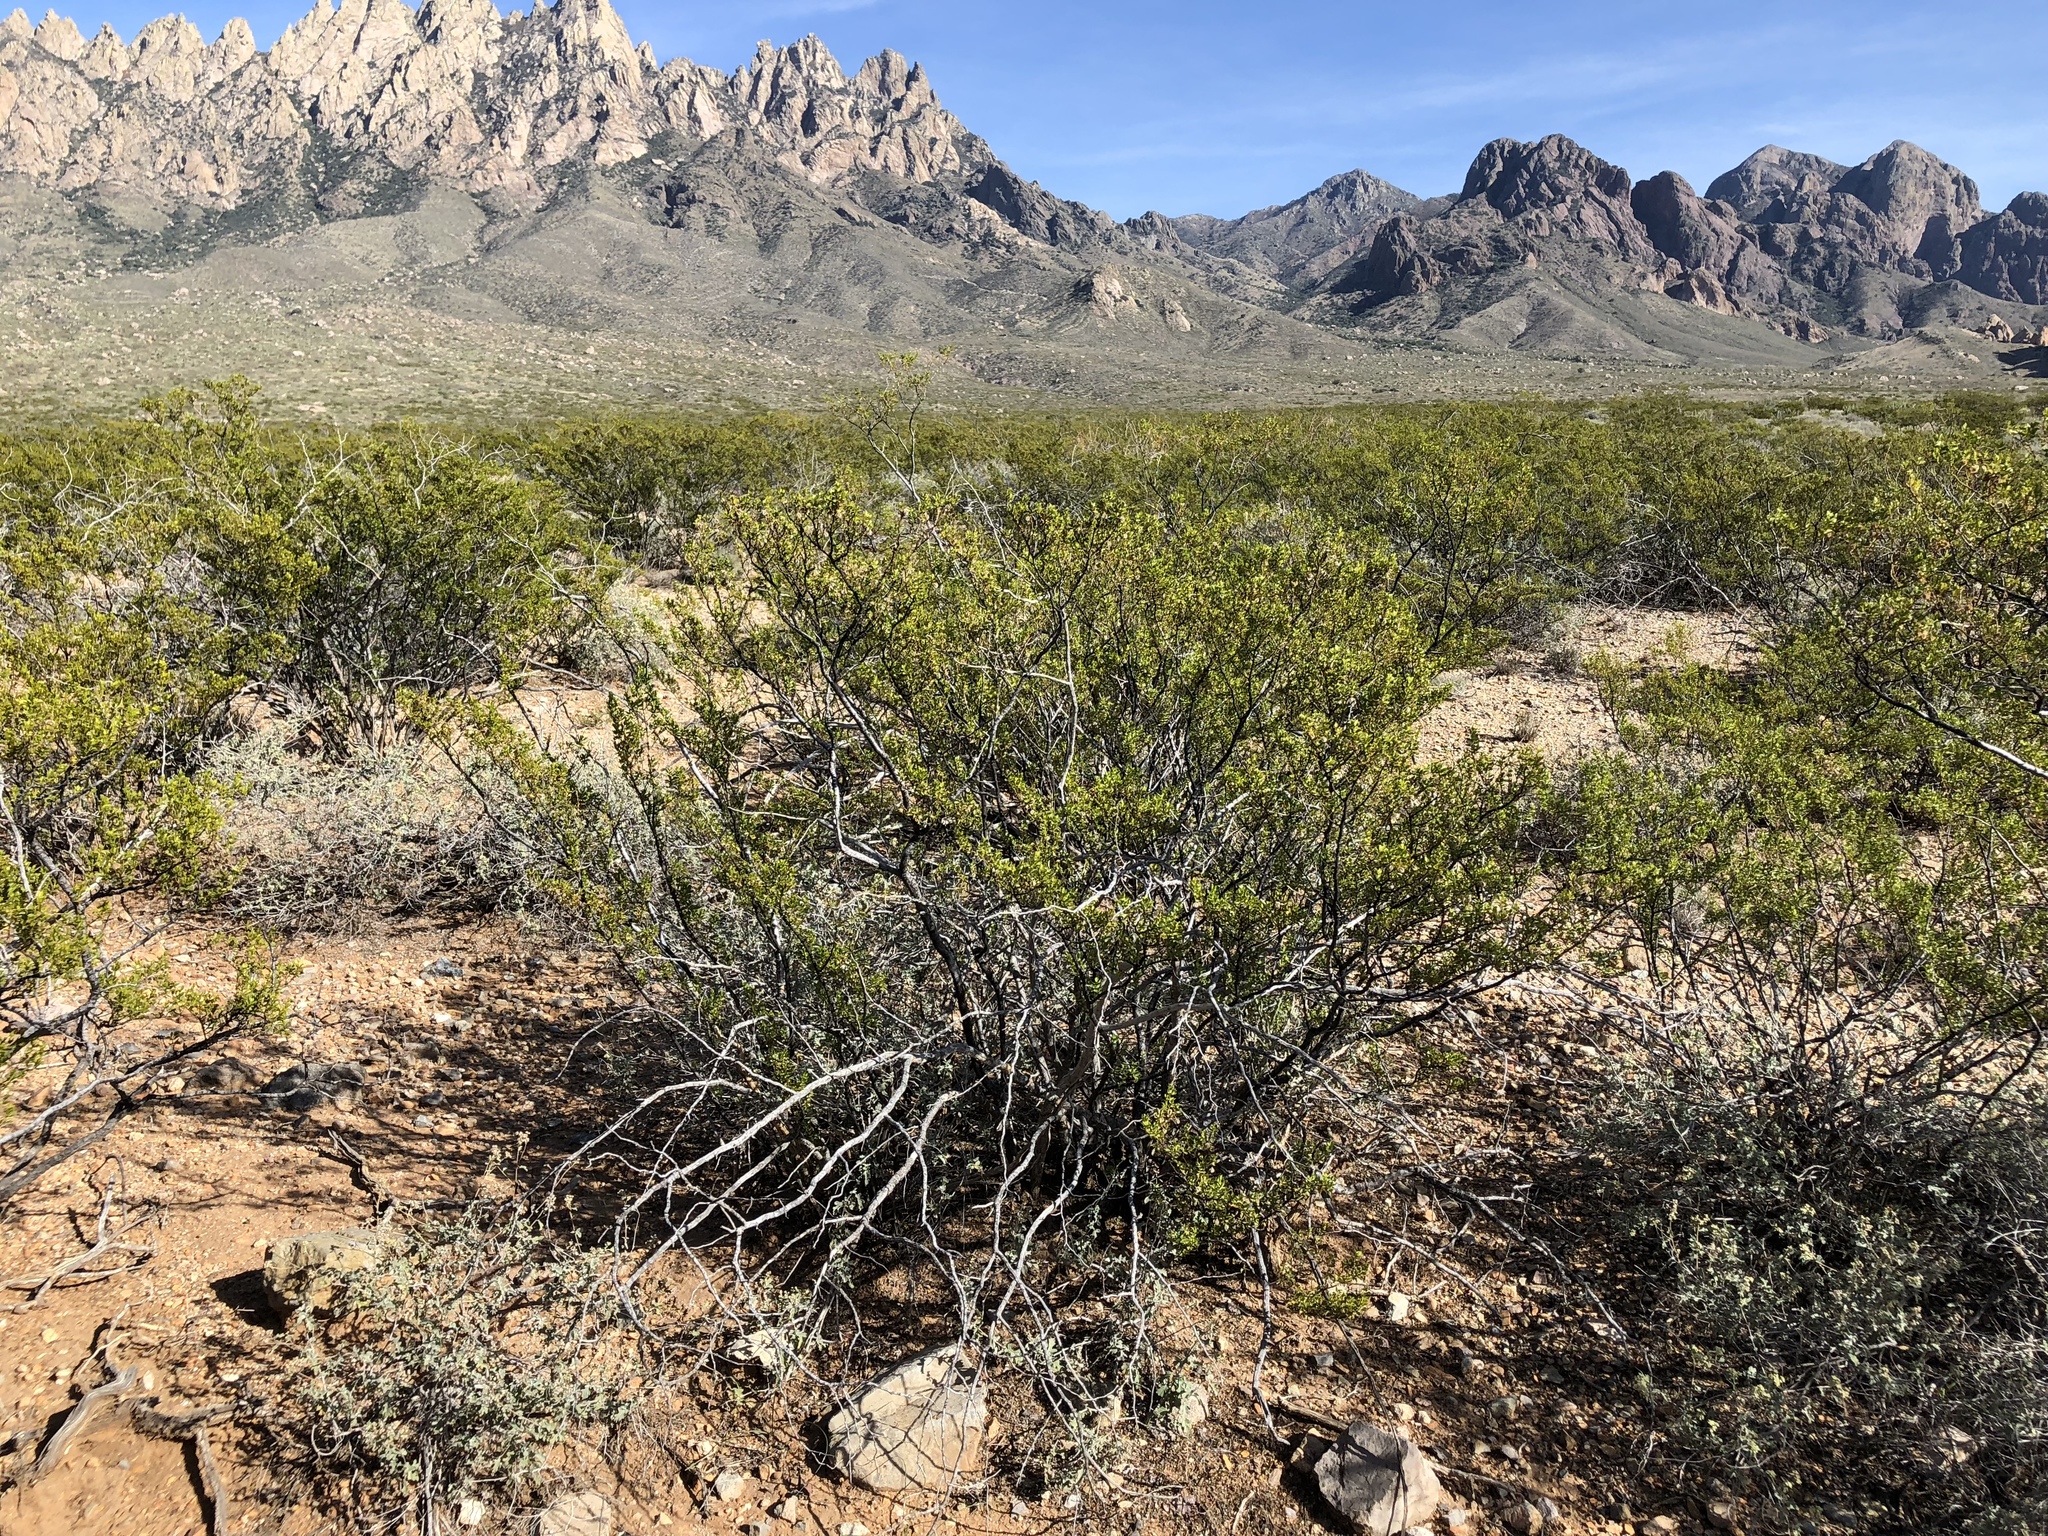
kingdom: Plantae
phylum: Tracheophyta
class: Magnoliopsida
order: Zygophyllales
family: Zygophyllaceae
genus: Larrea
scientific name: Larrea tridentata
